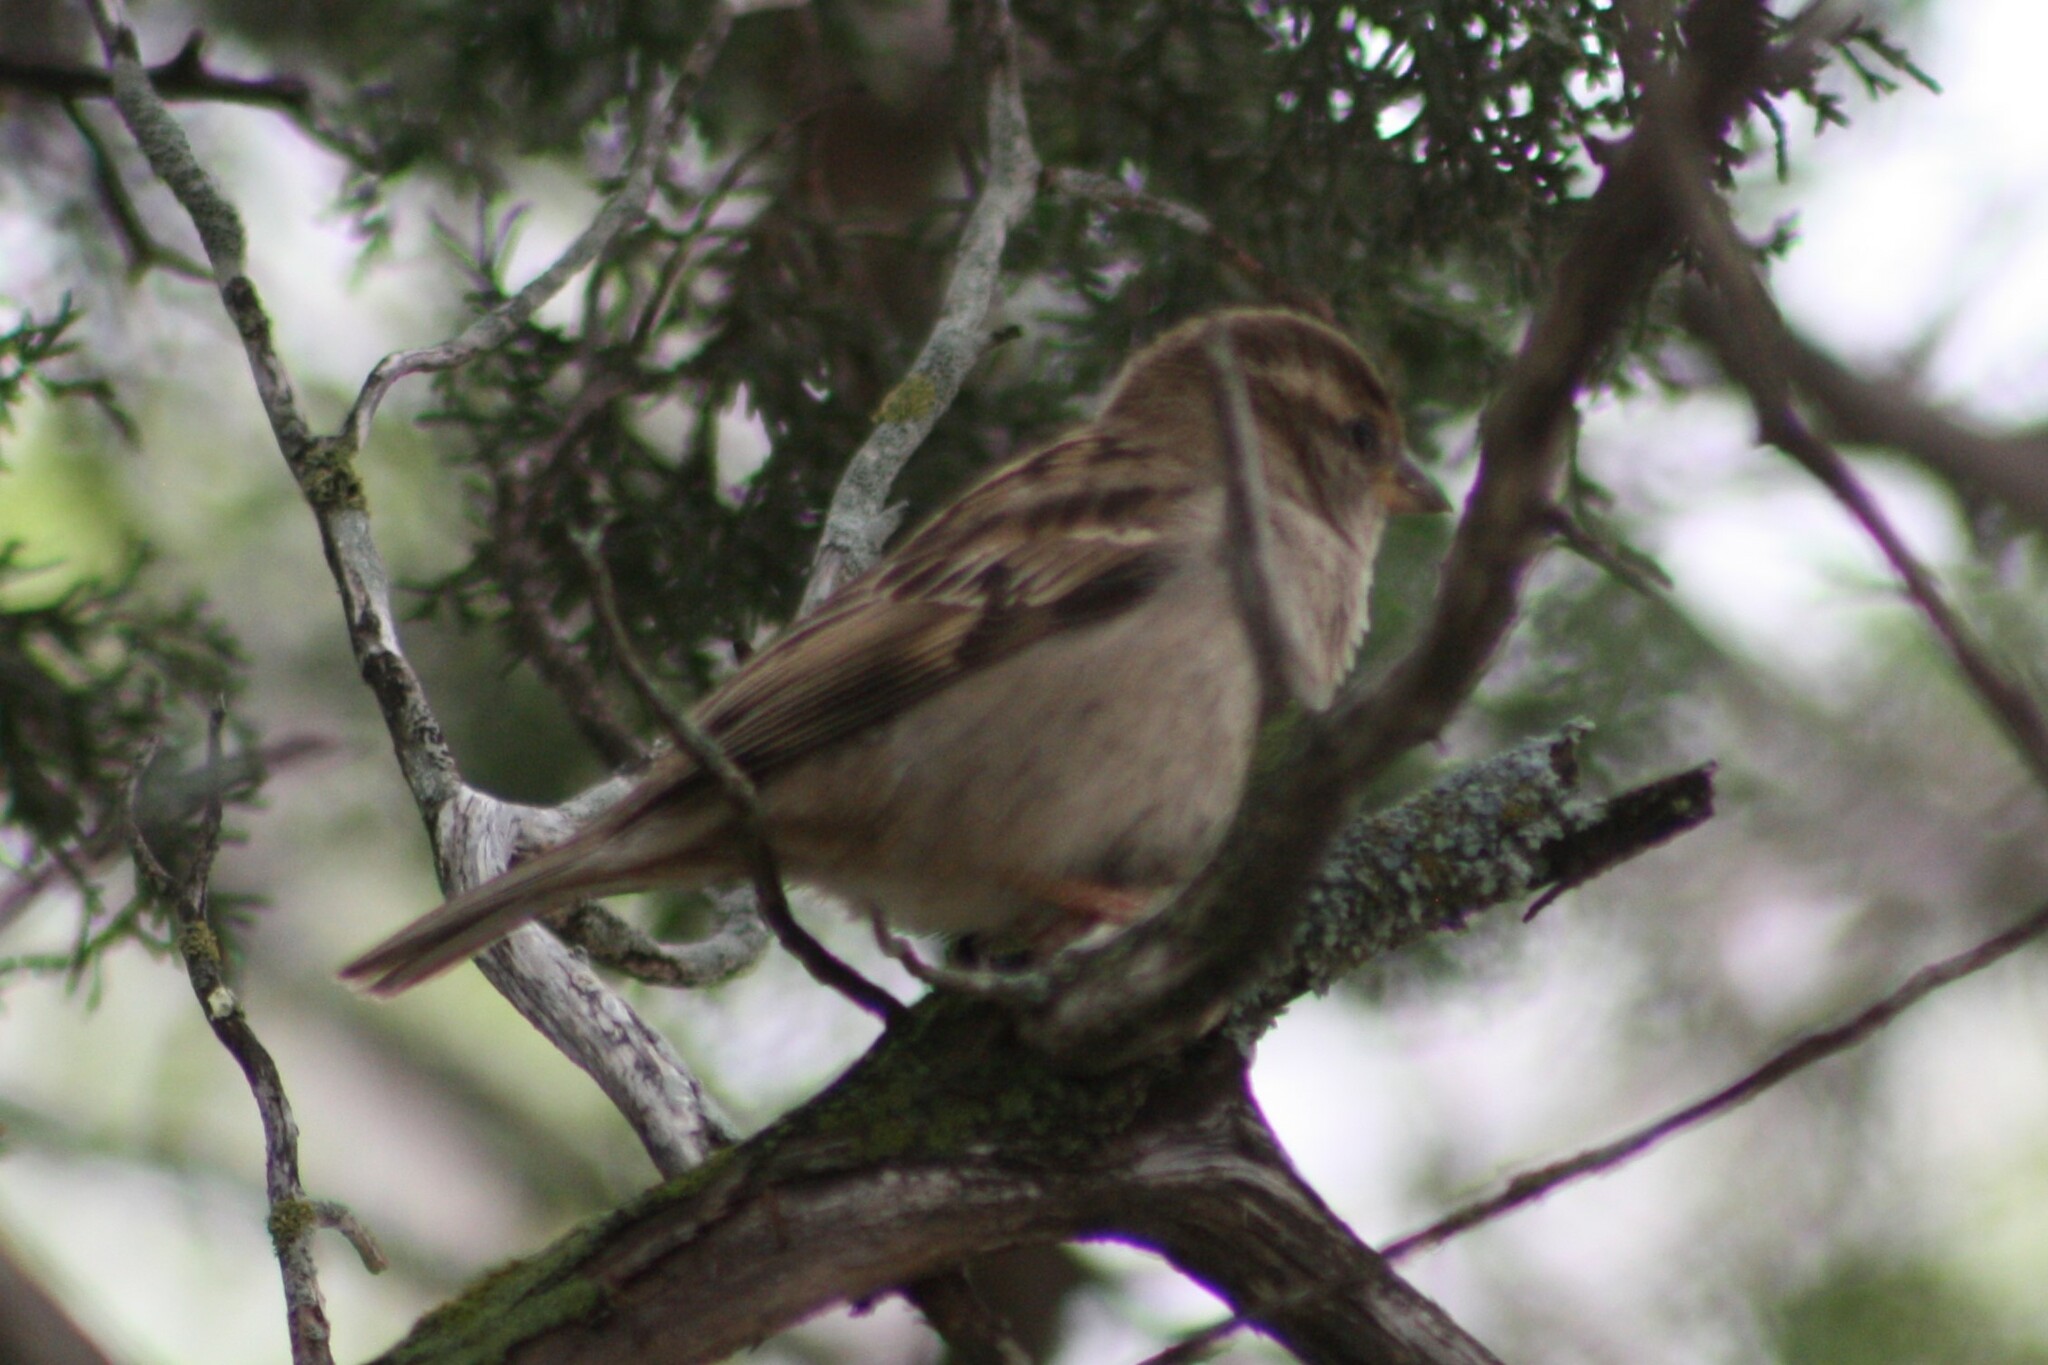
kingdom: Animalia
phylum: Chordata
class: Aves
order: Passeriformes
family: Passeridae
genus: Passer
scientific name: Passer domesticus
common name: House sparrow
